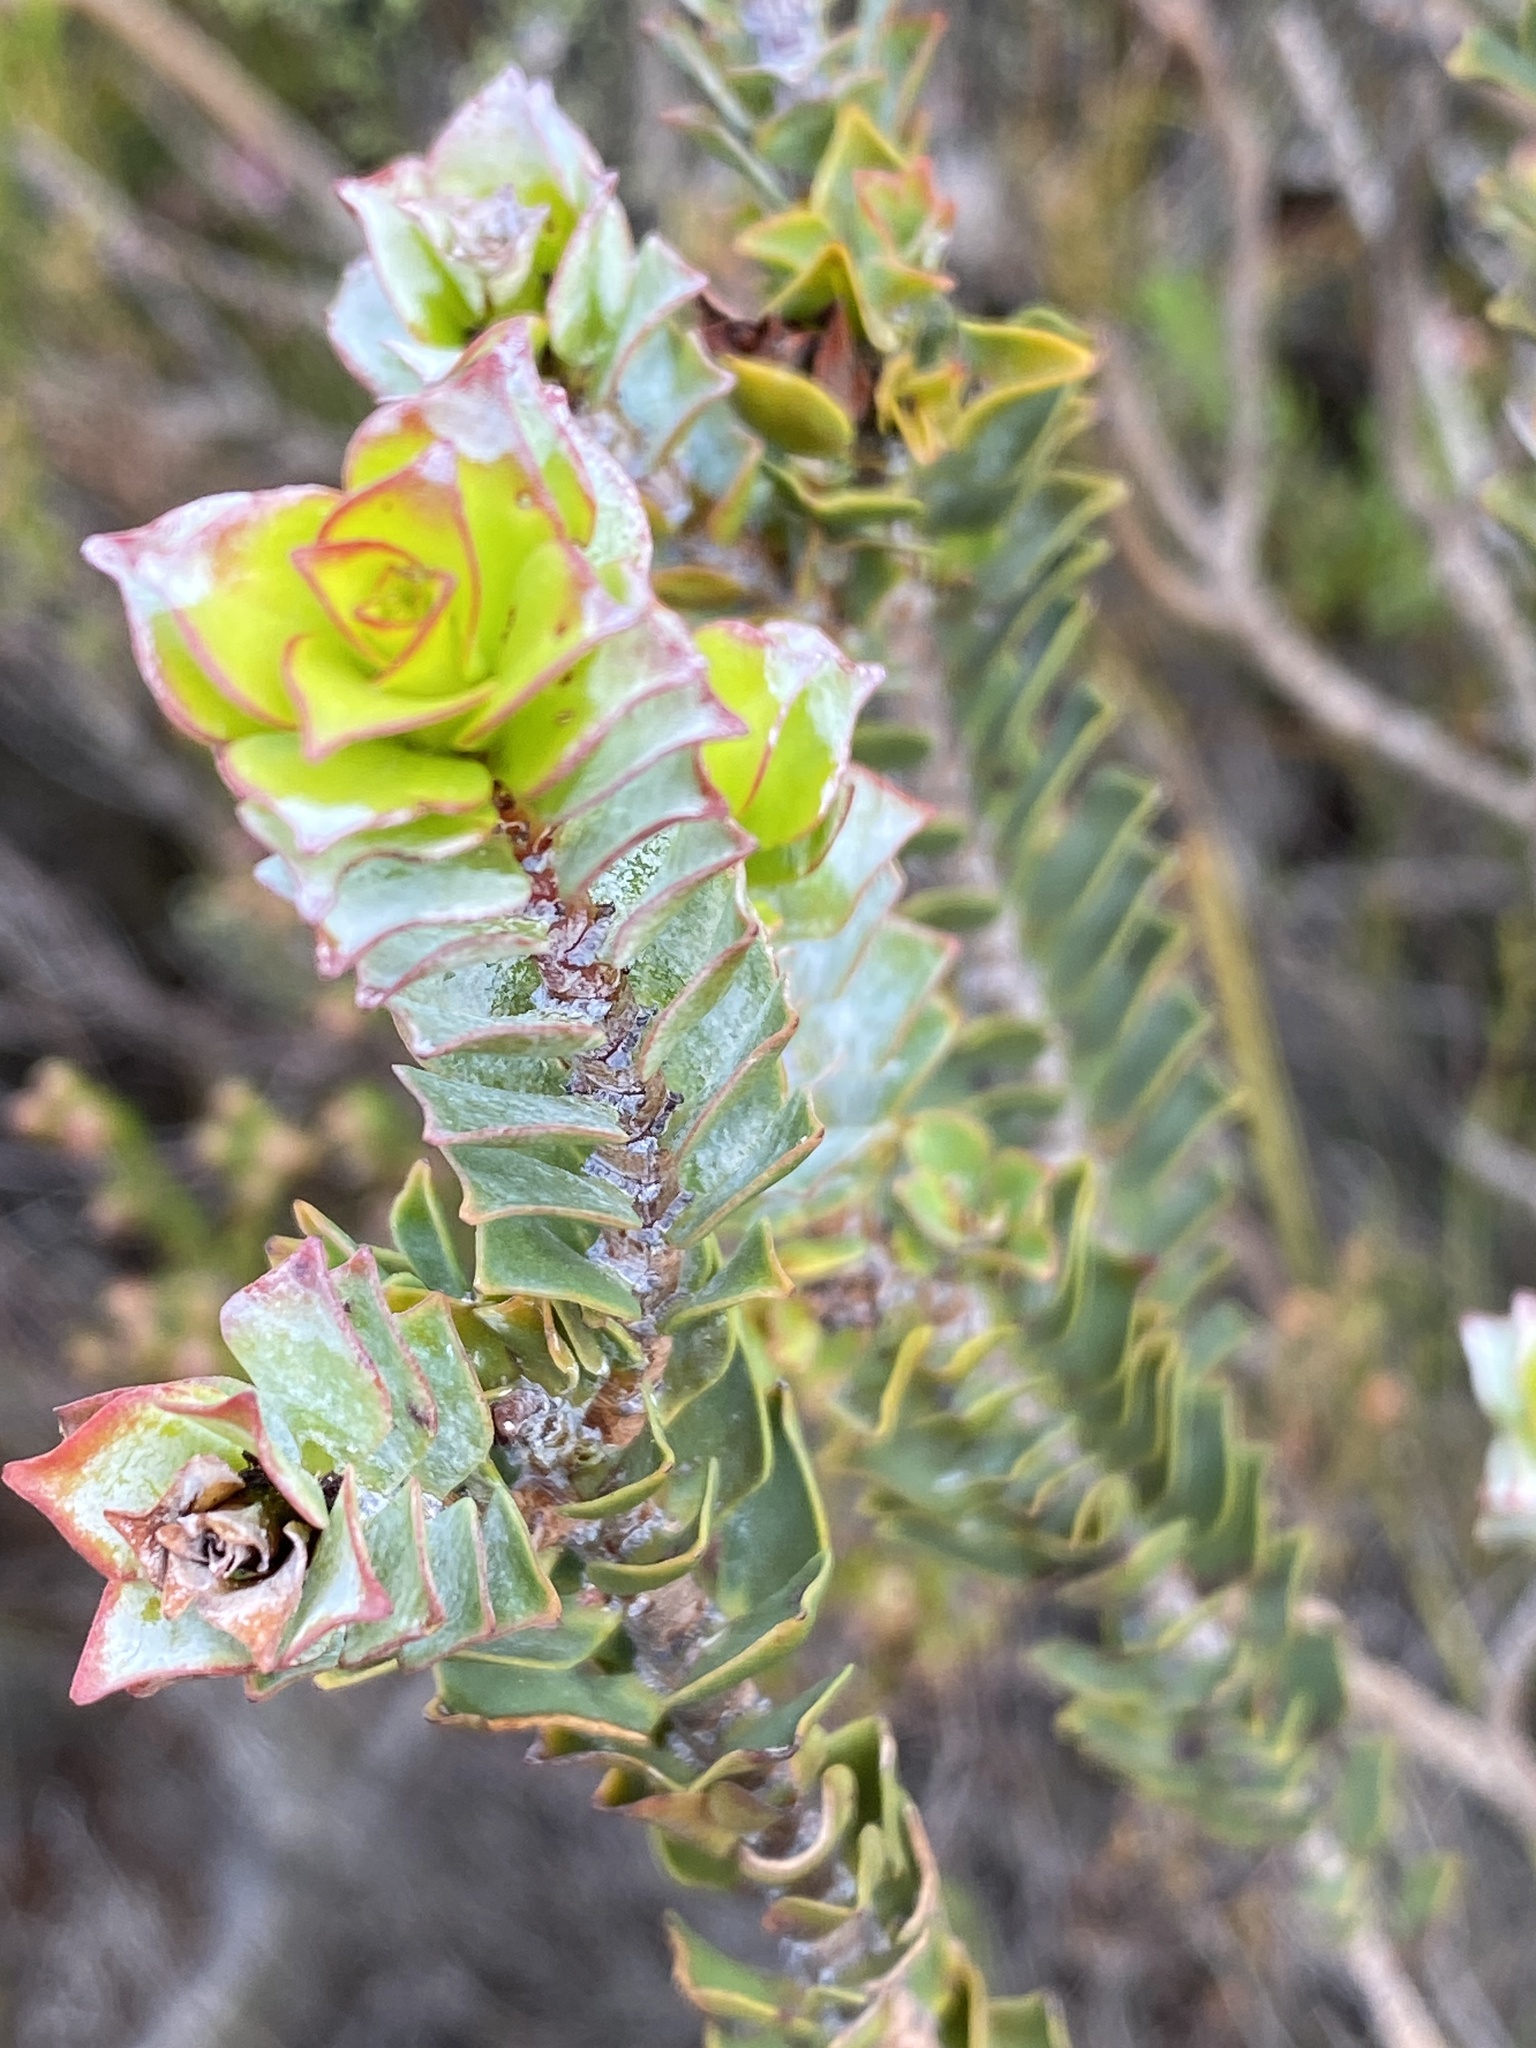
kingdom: Plantae
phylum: Tracheophyta
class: Magnoliopsida
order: Myrtales
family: Penaeaceae
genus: Saltera
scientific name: Saltera sarcocolla
